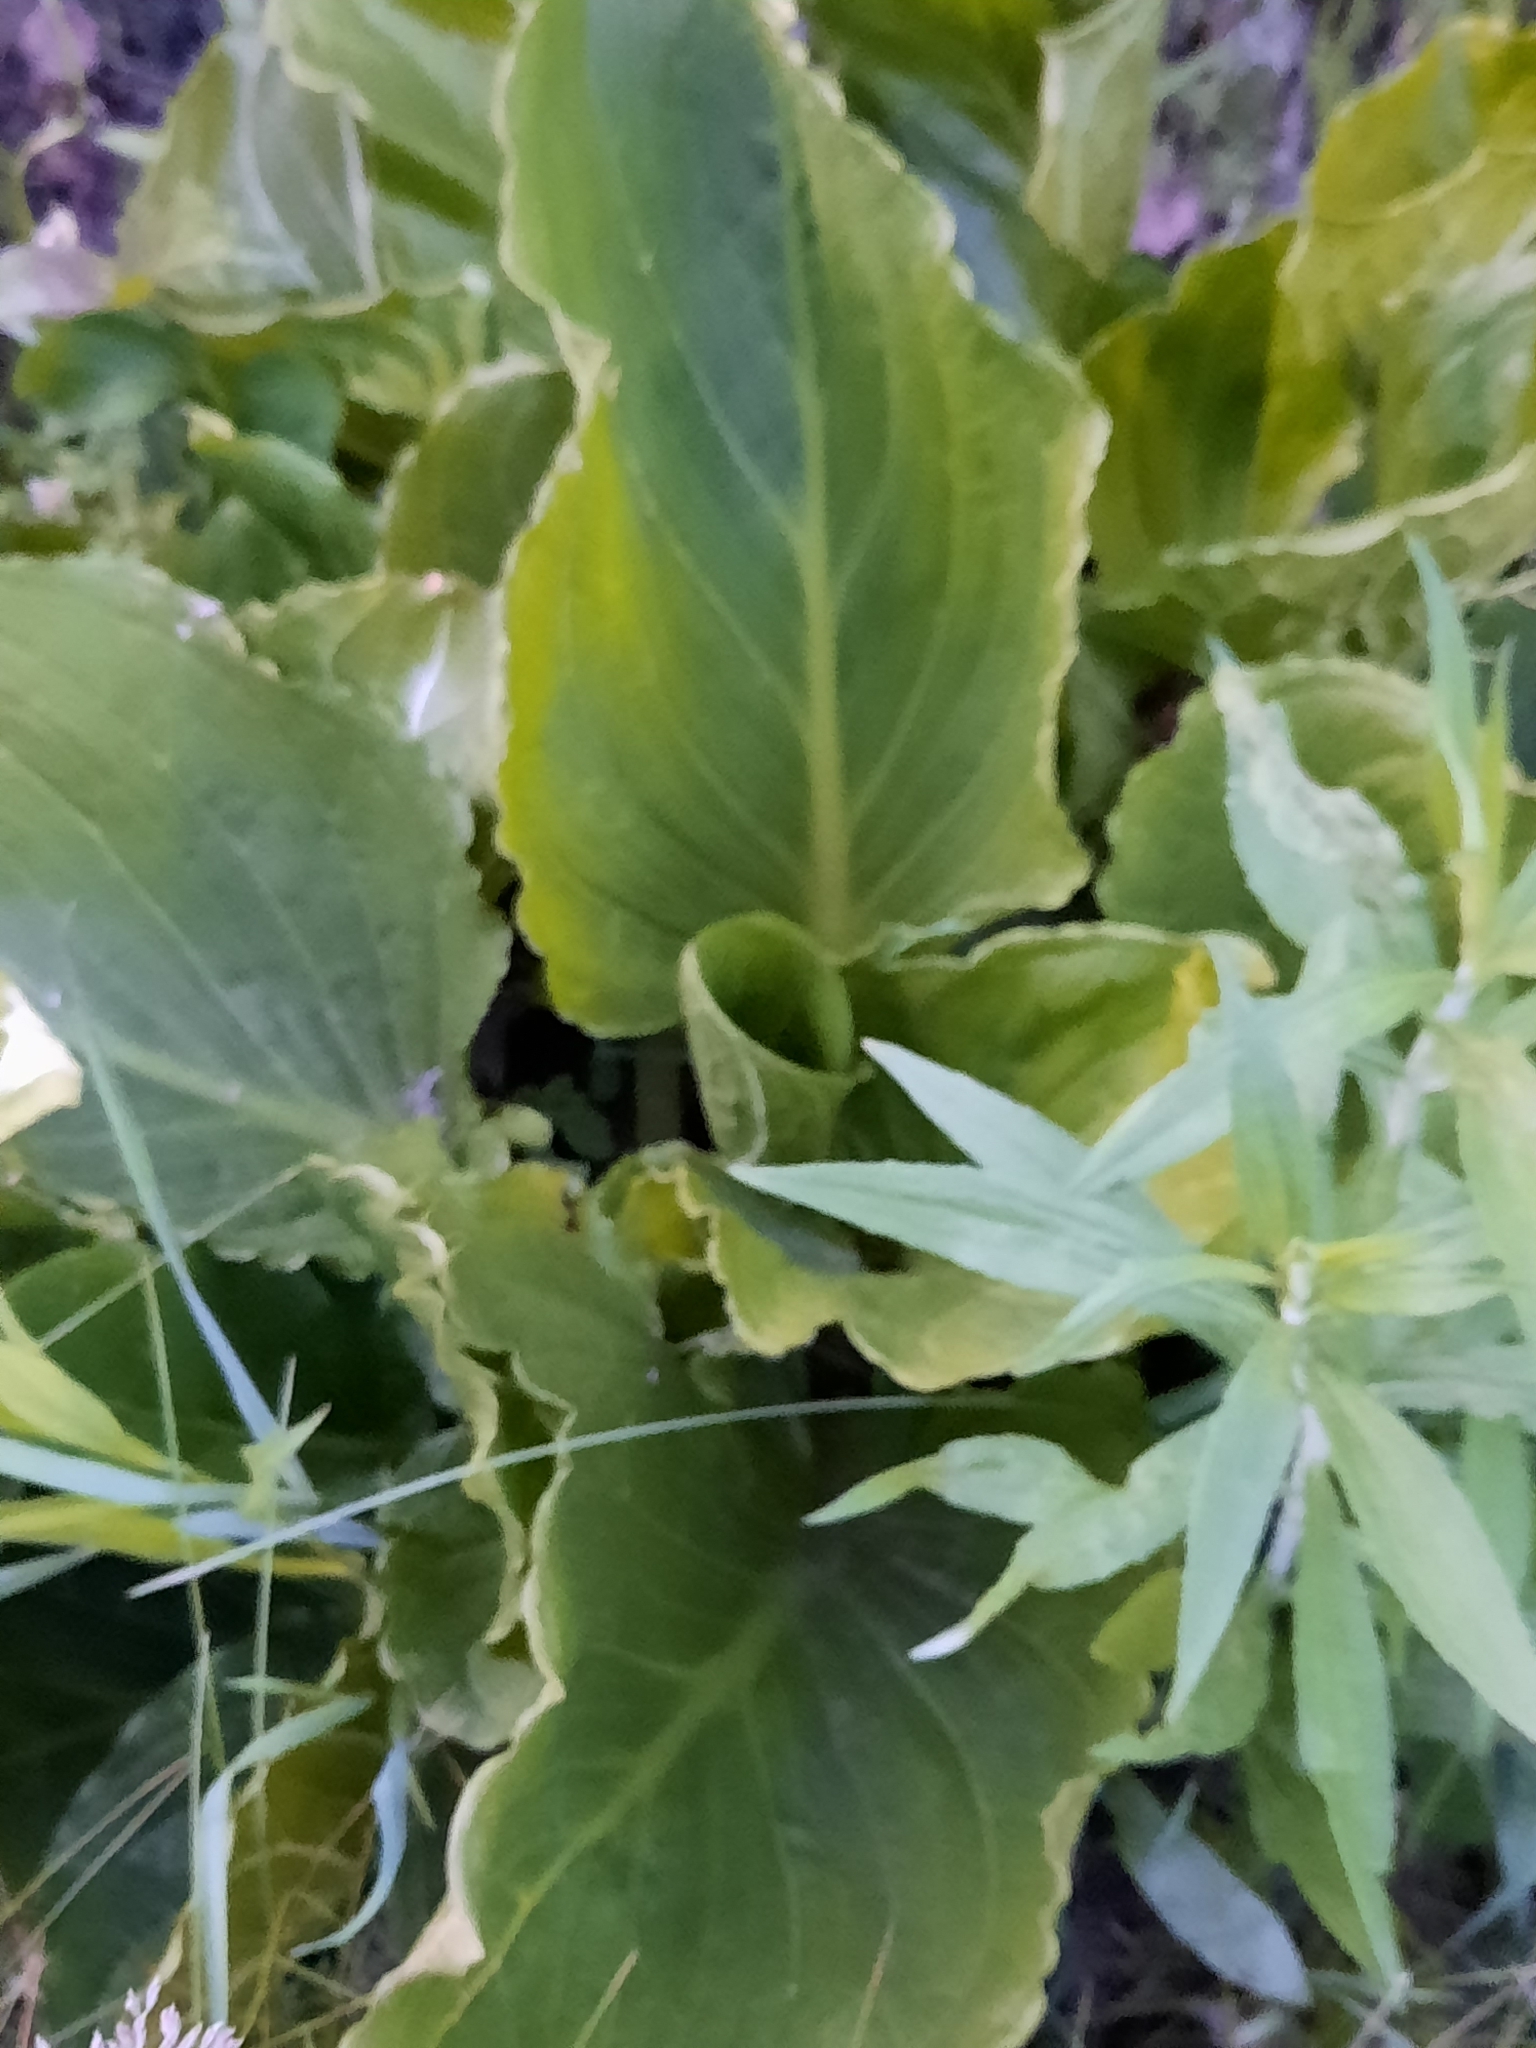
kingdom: Plantae
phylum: Tracheophyta
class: Liliopsida
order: Alismatales
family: Araceae
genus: Symplocarpus
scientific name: Symplocarpus foetidus
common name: Eastern skunk cabbage
